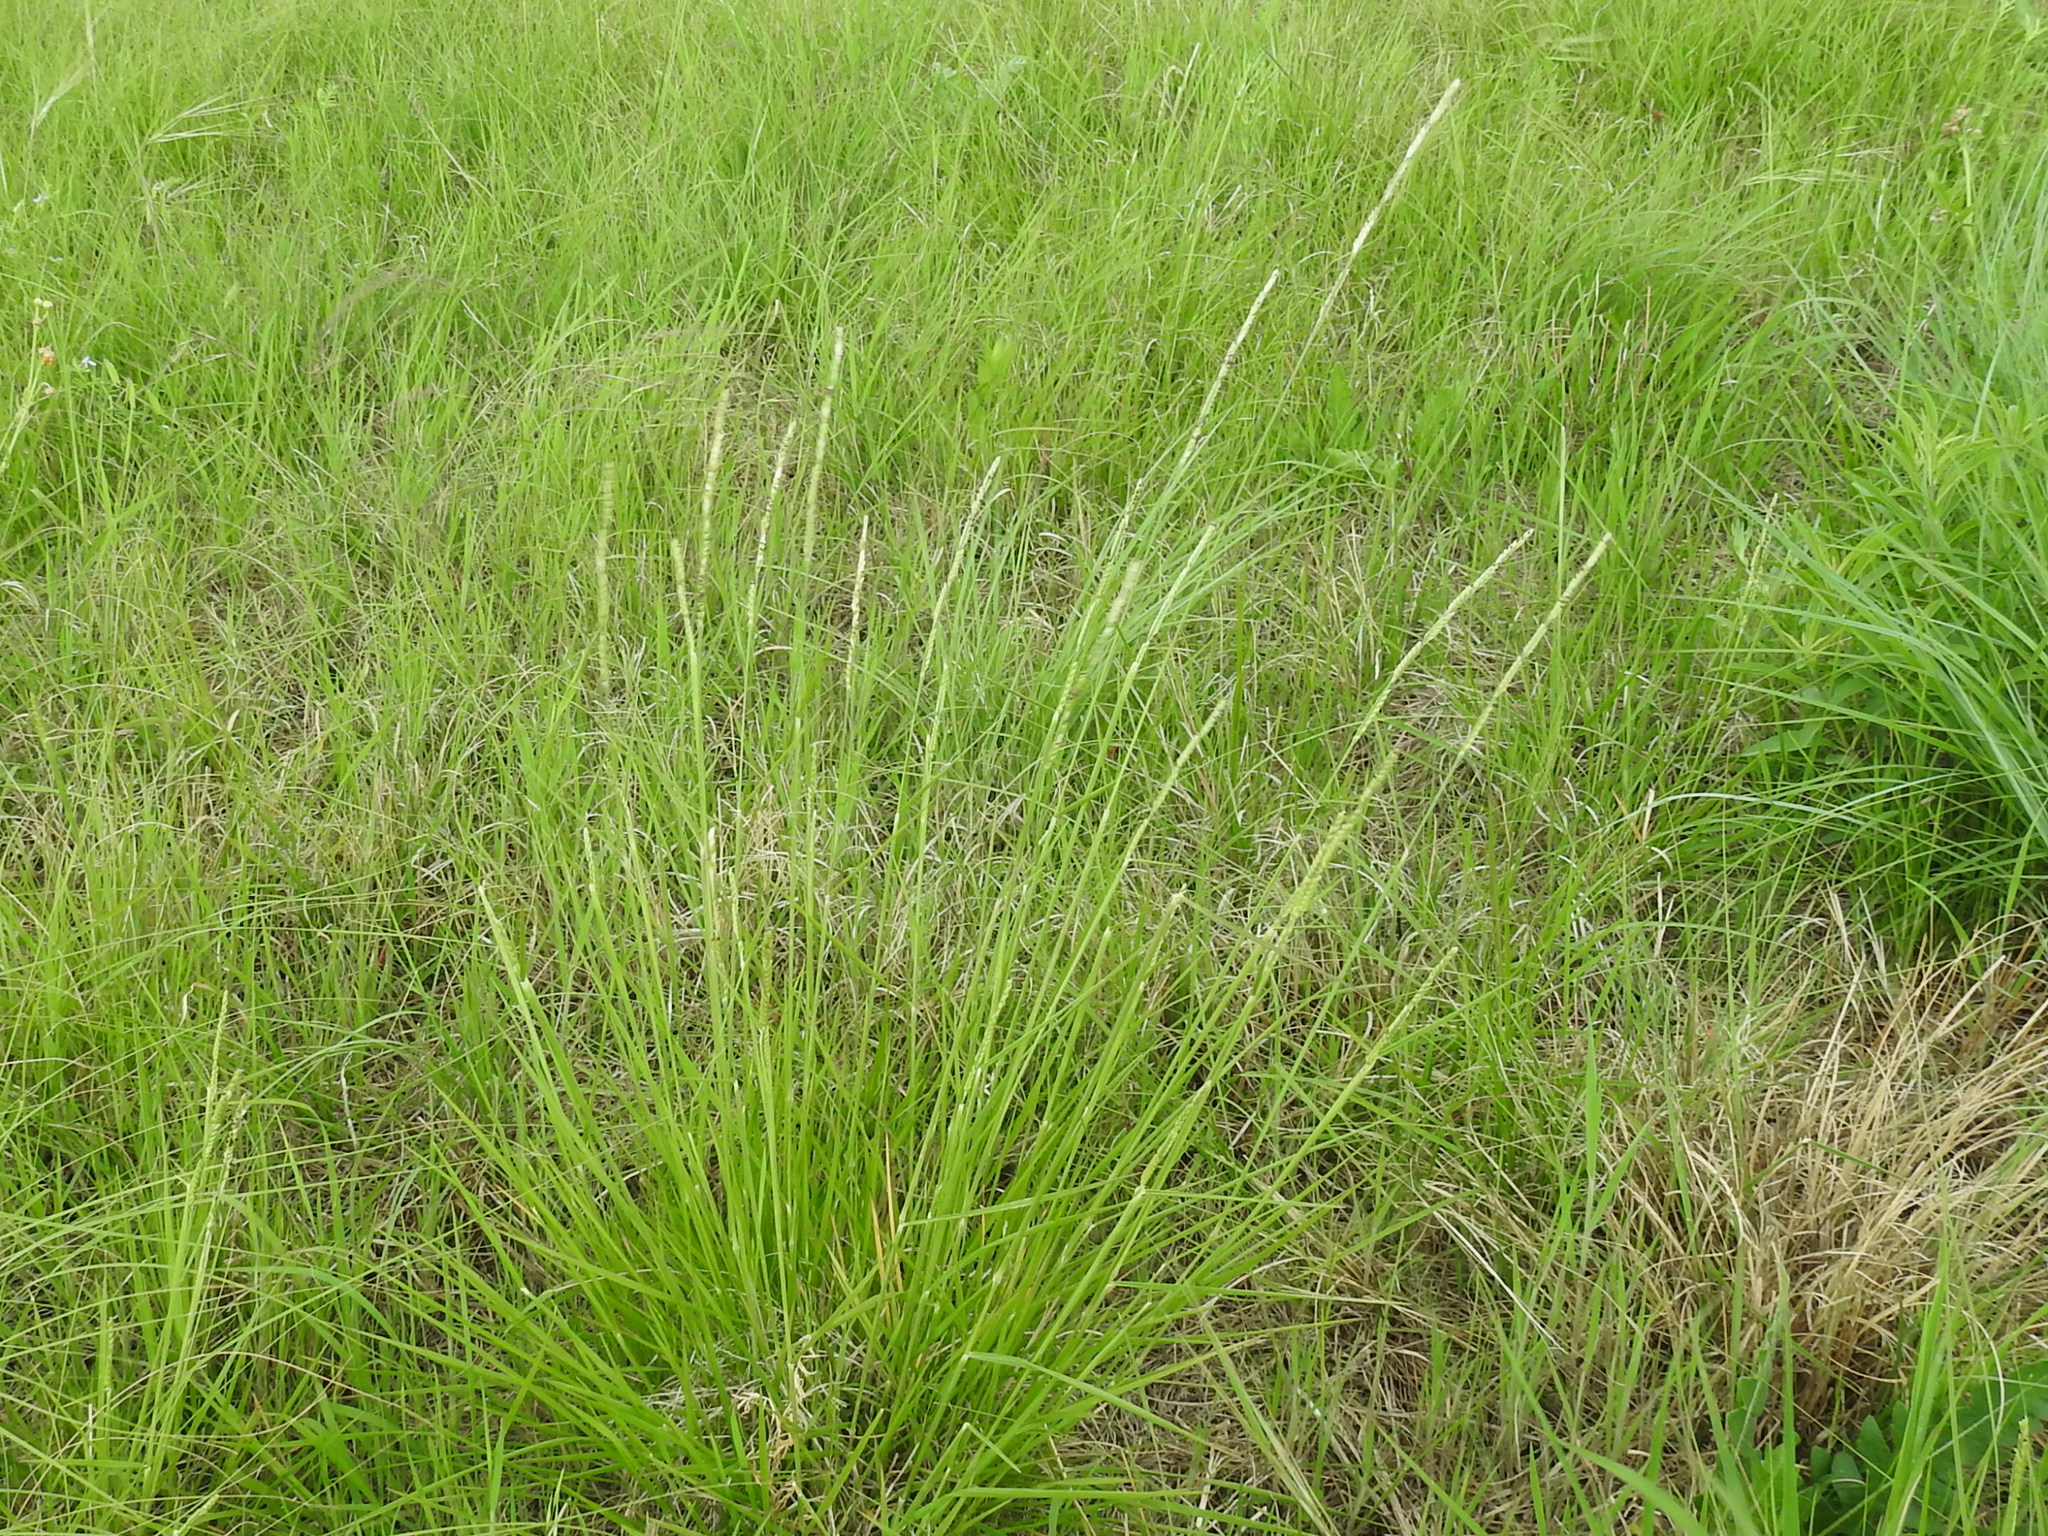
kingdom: Plantae
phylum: Tracheophyta
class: Liliopsida
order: Poales
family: Poaceae
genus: Eriochloa
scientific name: Eriochloa sericea
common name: Texas cup grass
